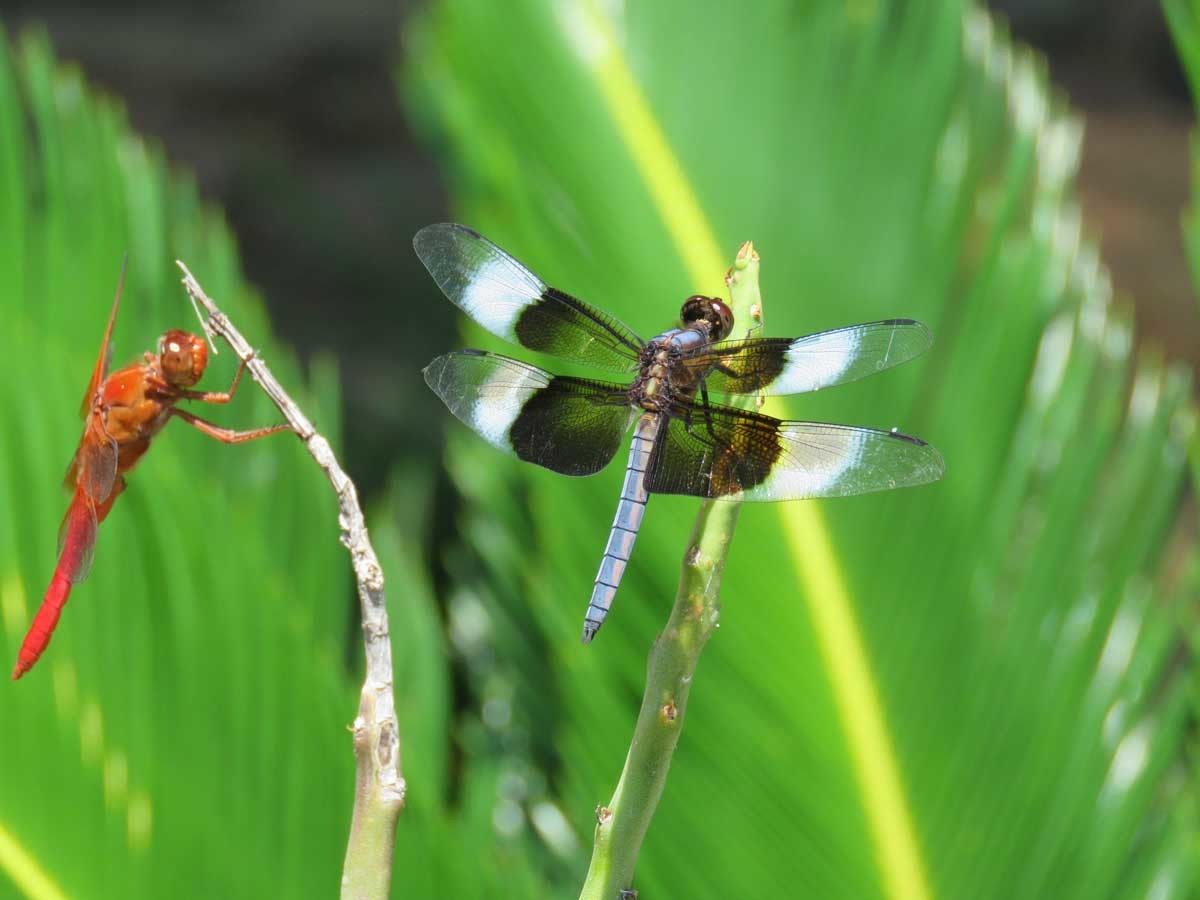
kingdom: Animalia
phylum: Arthropoda
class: Insecta
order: Odonata
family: Libellulidae
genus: Libellula
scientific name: Libellula luctuosa
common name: Widow skimmer
